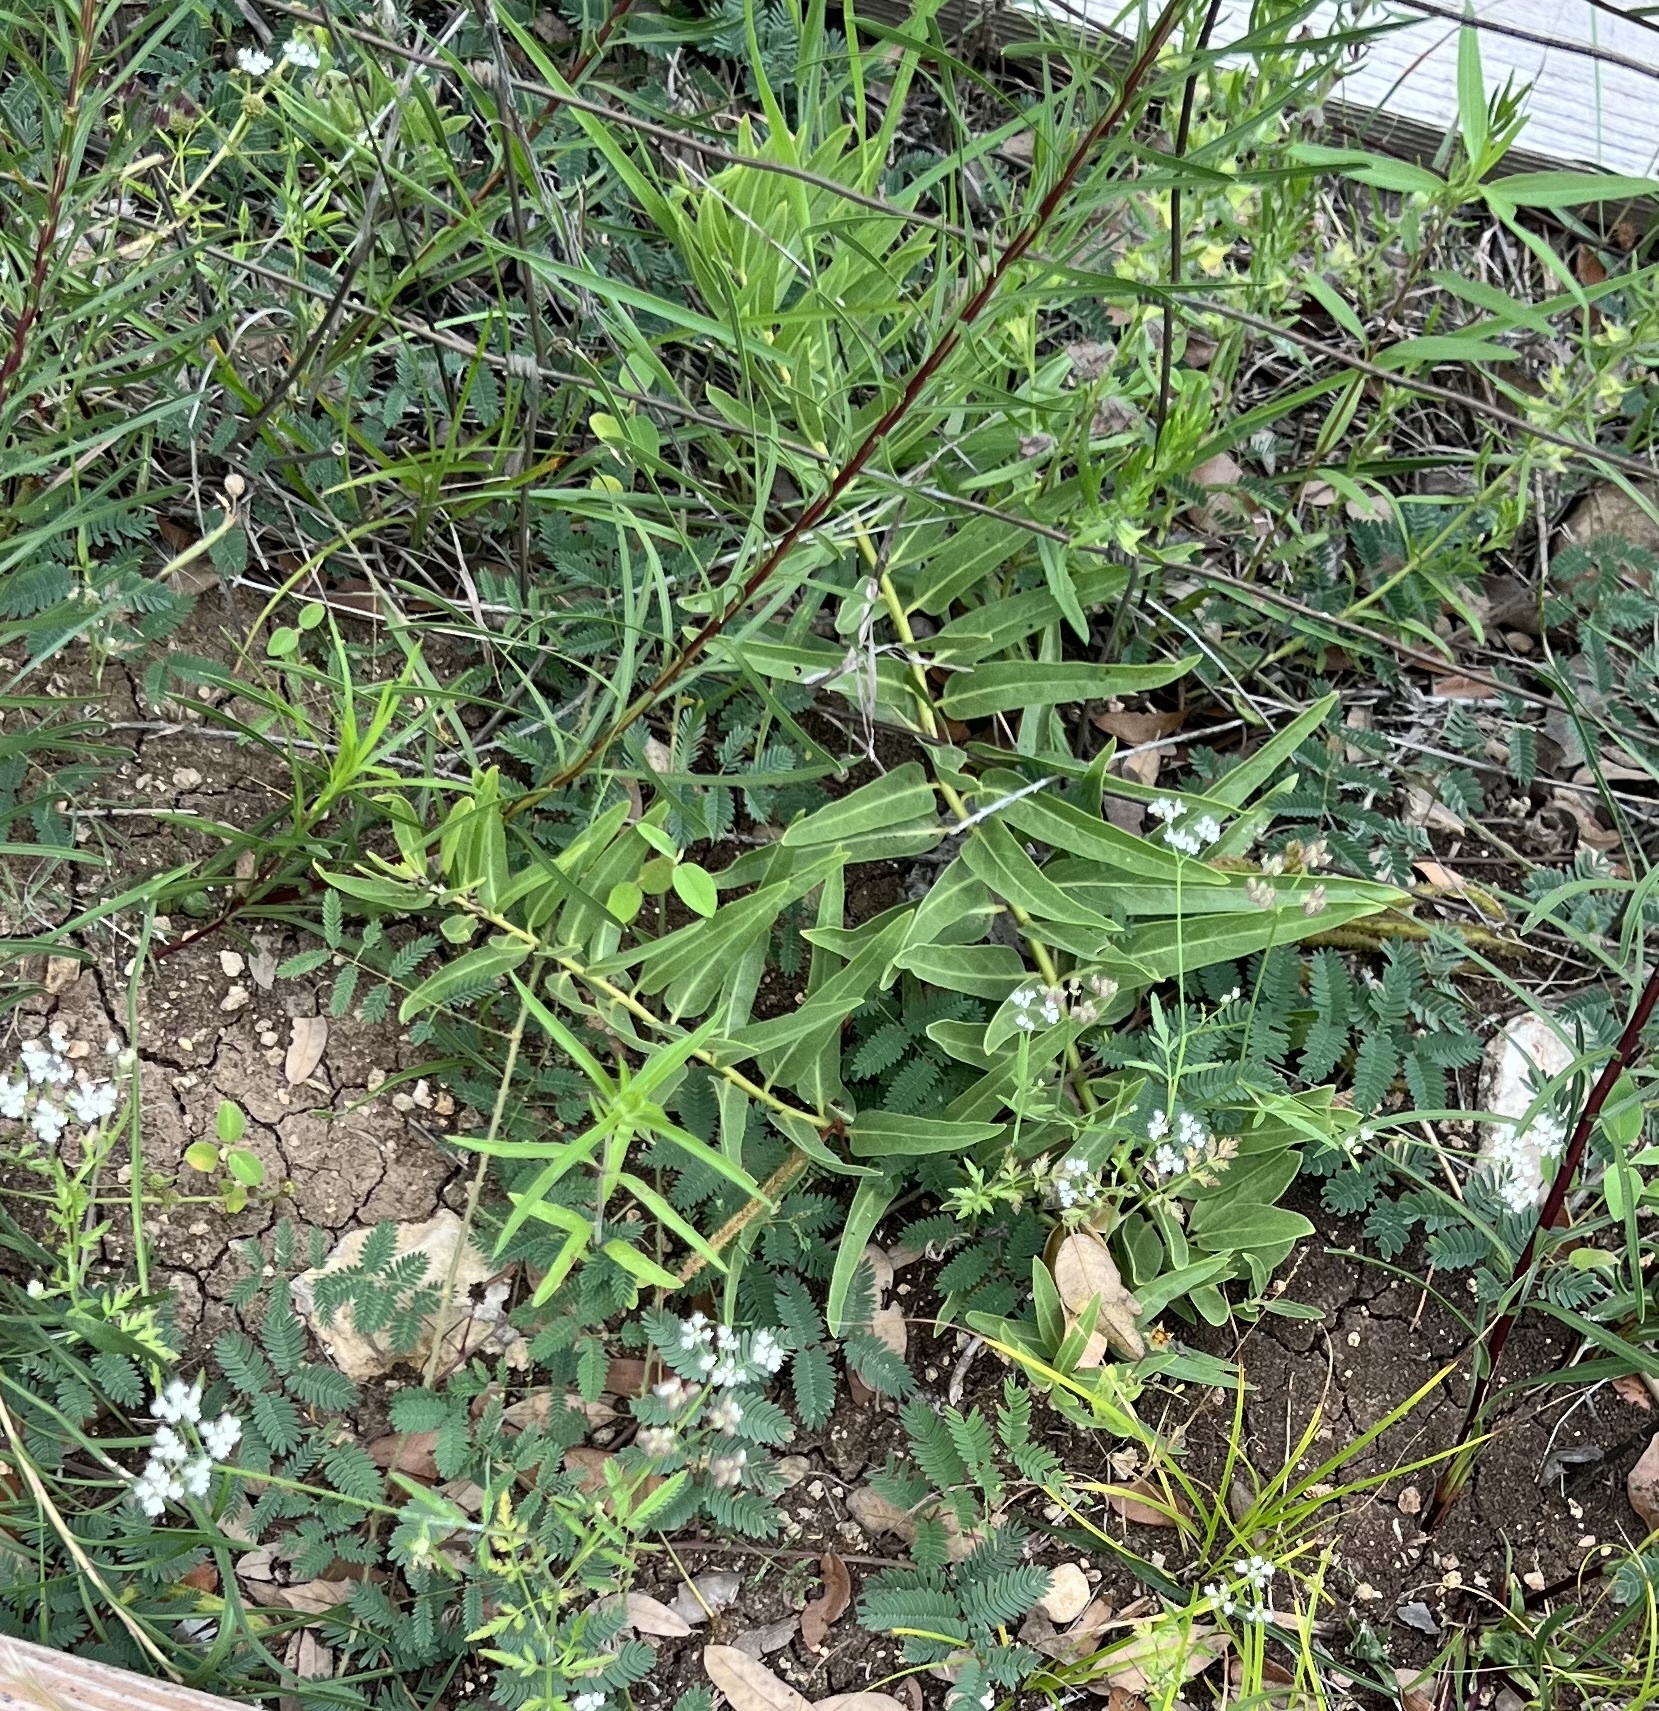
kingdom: Plantae
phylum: Tracheophyta
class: Magnoliopsida
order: Gentianales
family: Apocynaceae
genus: Asclepias
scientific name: Asclepias asperula
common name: Antelope horns
